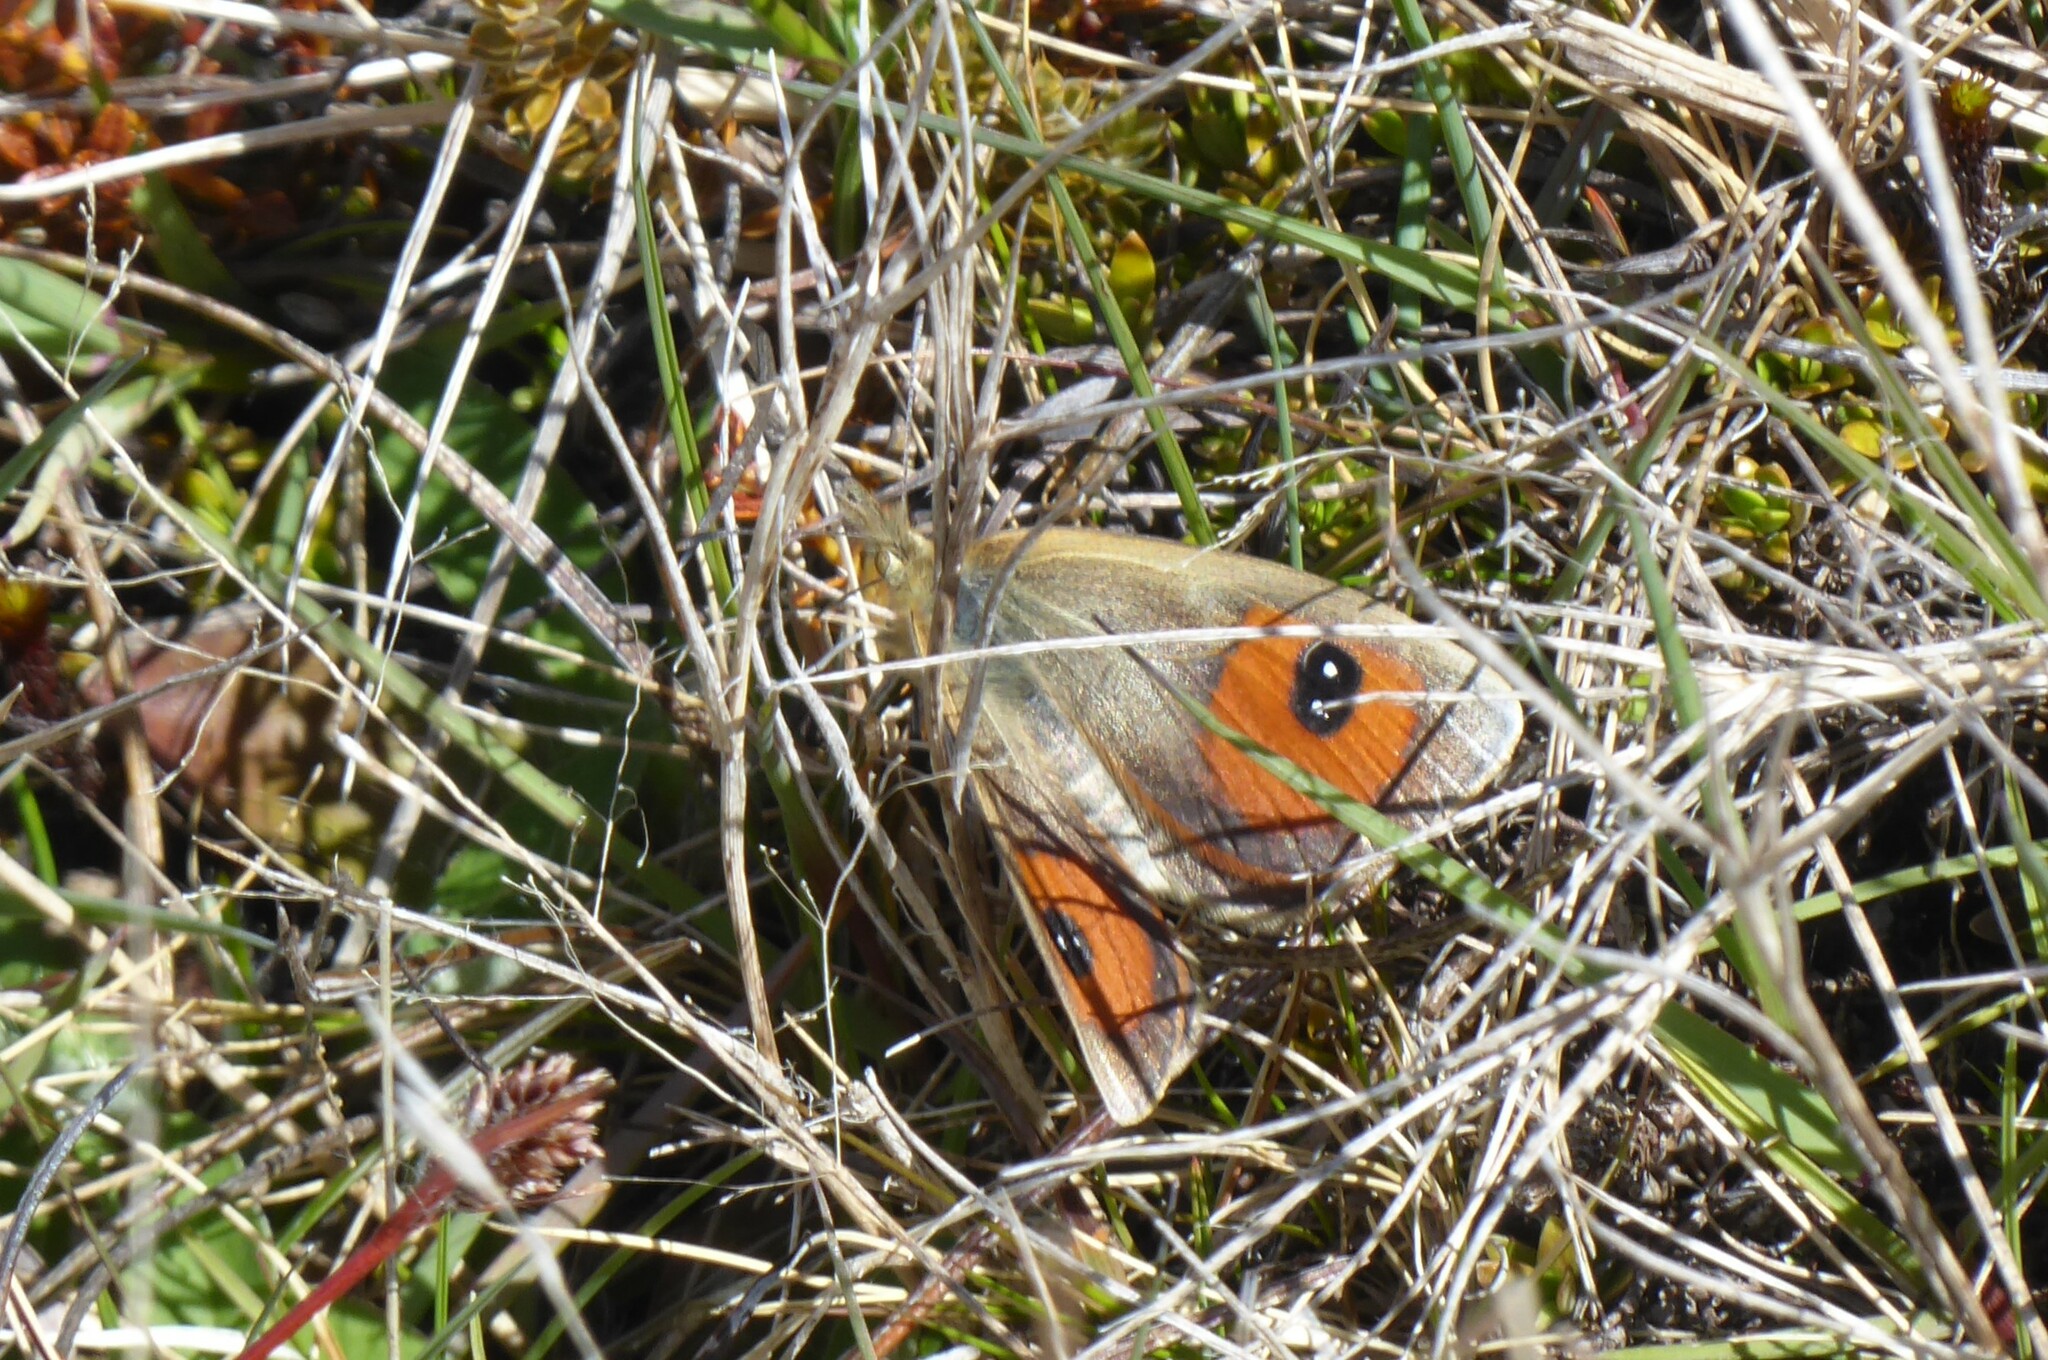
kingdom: Animalia
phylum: Arthropoda
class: Insecta
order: Lepidoptera
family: Nymphalidae
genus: Argyrophenga
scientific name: Argyrophenga antipodum
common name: Common tussock butterfly
